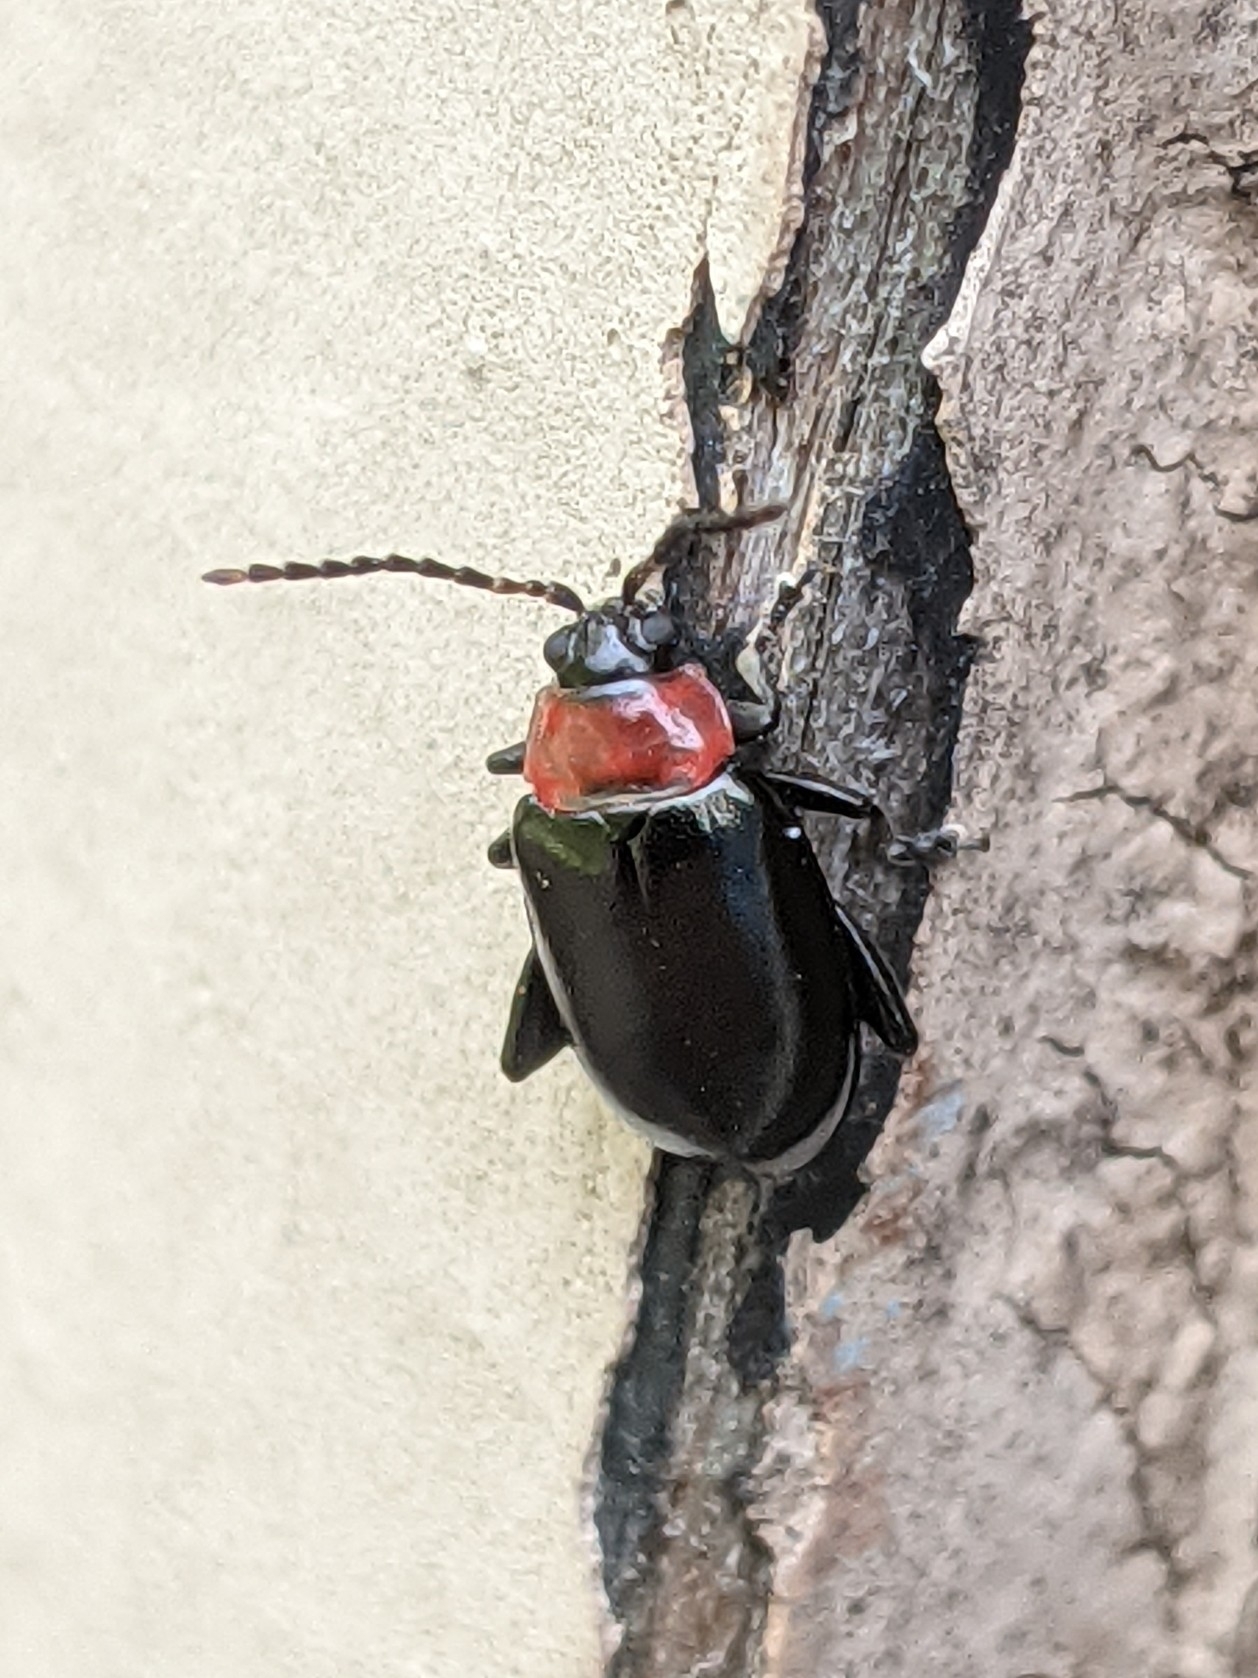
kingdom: Animalia
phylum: Arthropoda
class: Insecta
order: Coleoptera
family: Chrysomelidae
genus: Disonycha
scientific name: Disonycha xanthomelas
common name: Spinach flea beetle
